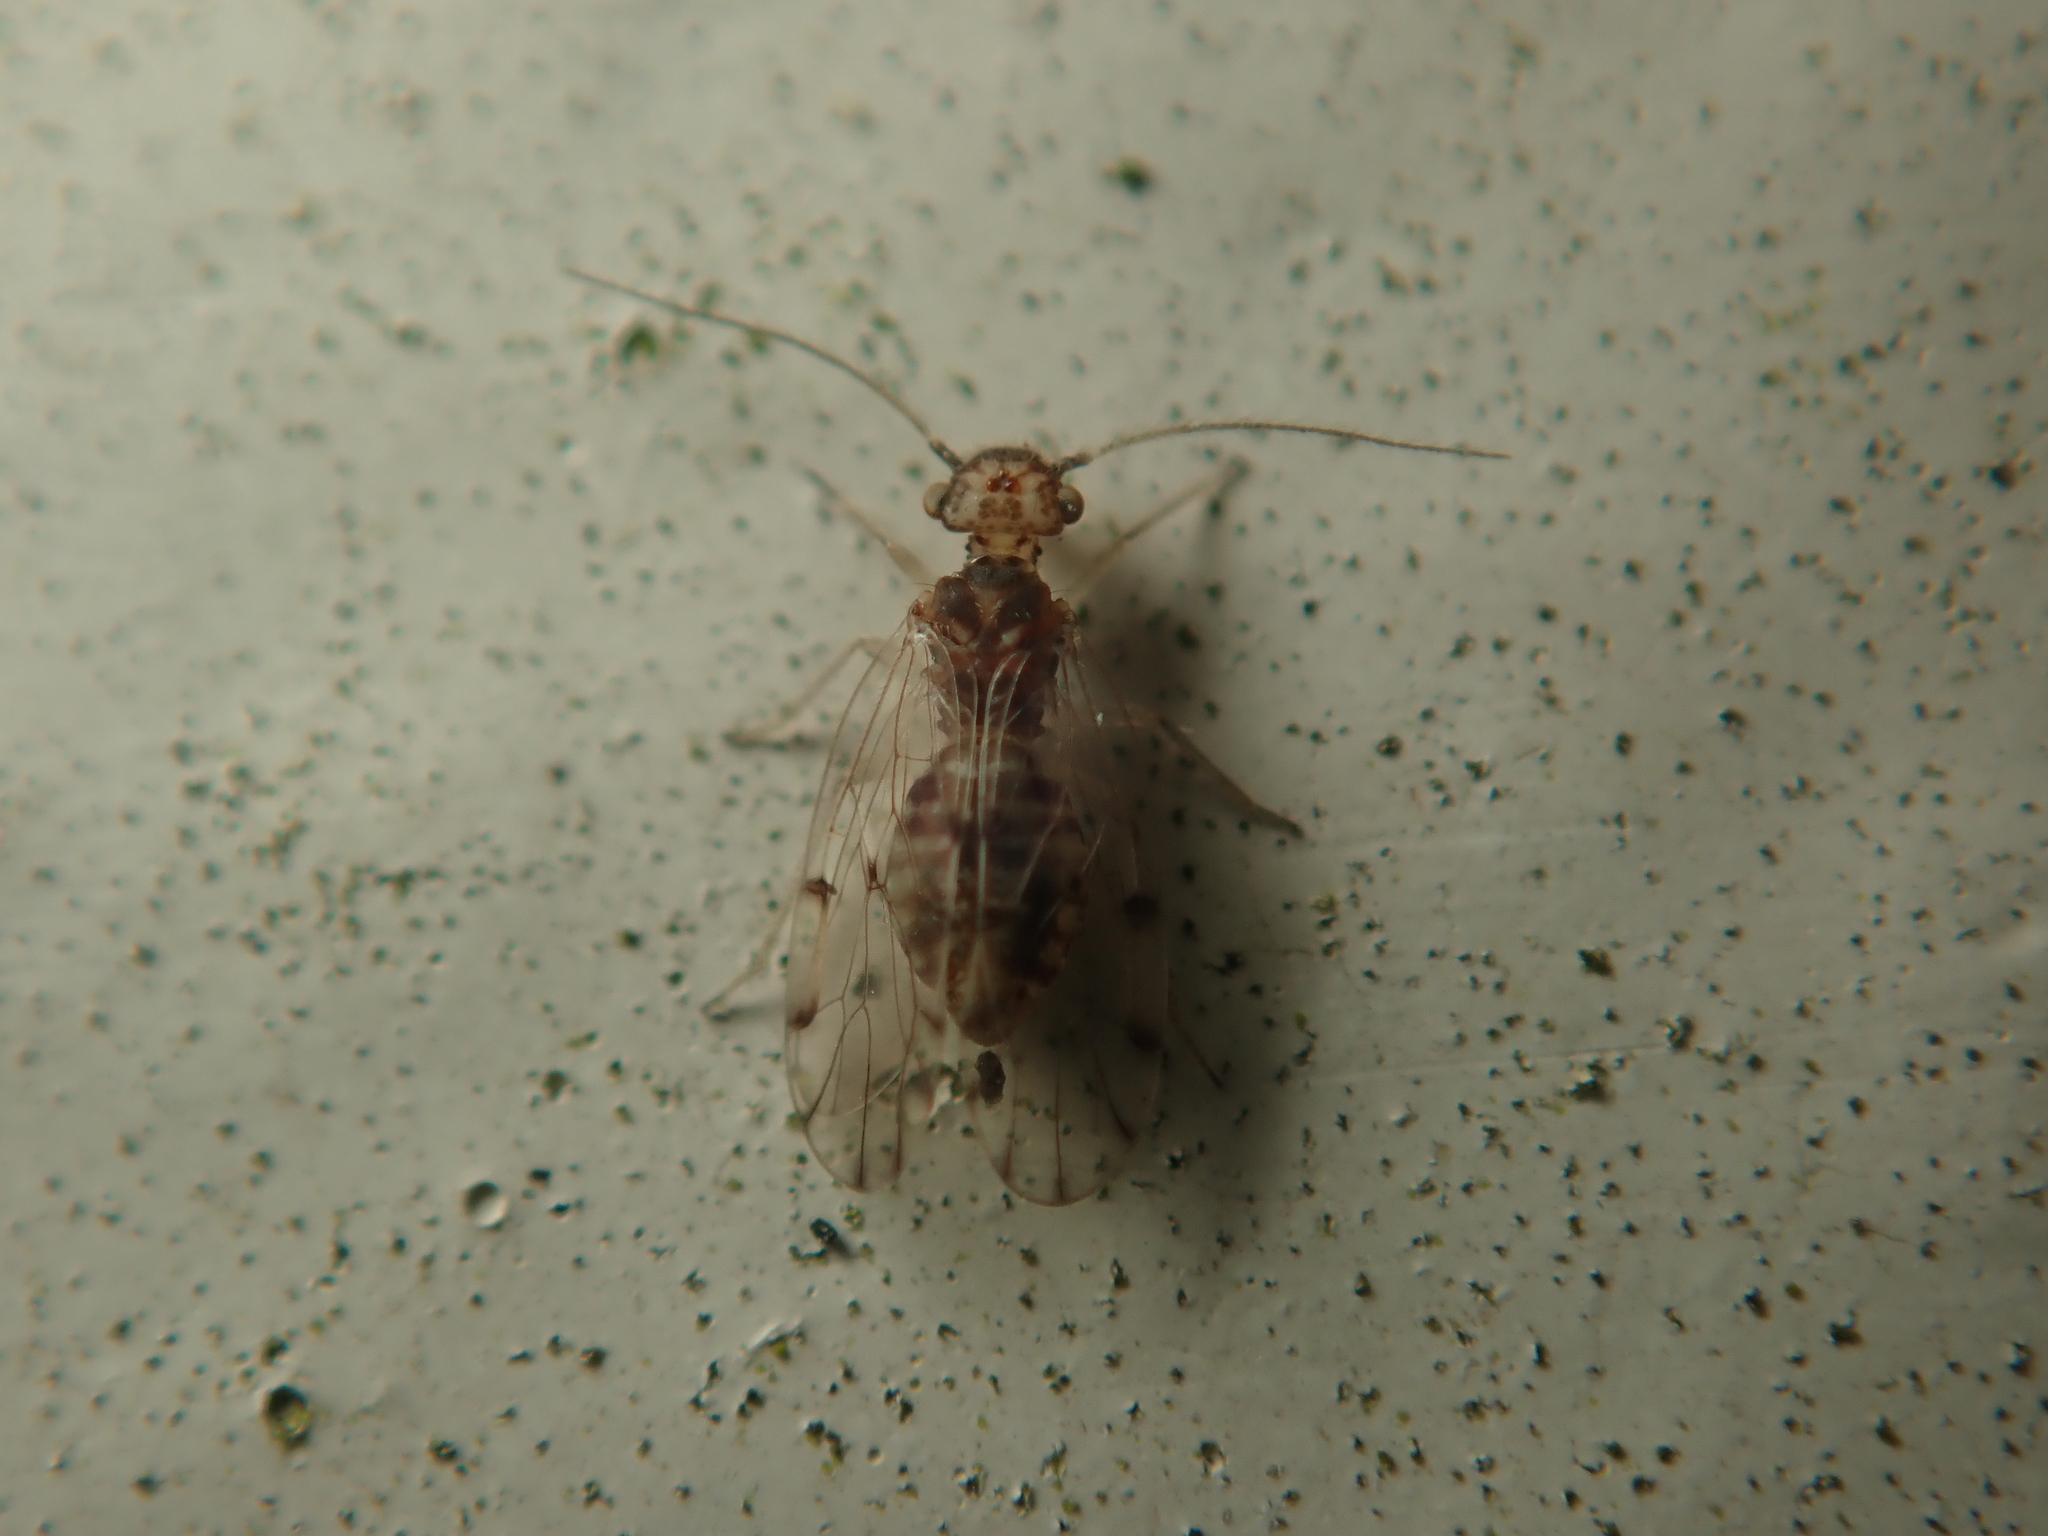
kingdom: Animalia
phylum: Arthropoda
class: Insecta
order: Psocodea
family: Ectopsocidae
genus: Ectopsocus
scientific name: Ectopsocus petersi
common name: Medium-sized bark louse
